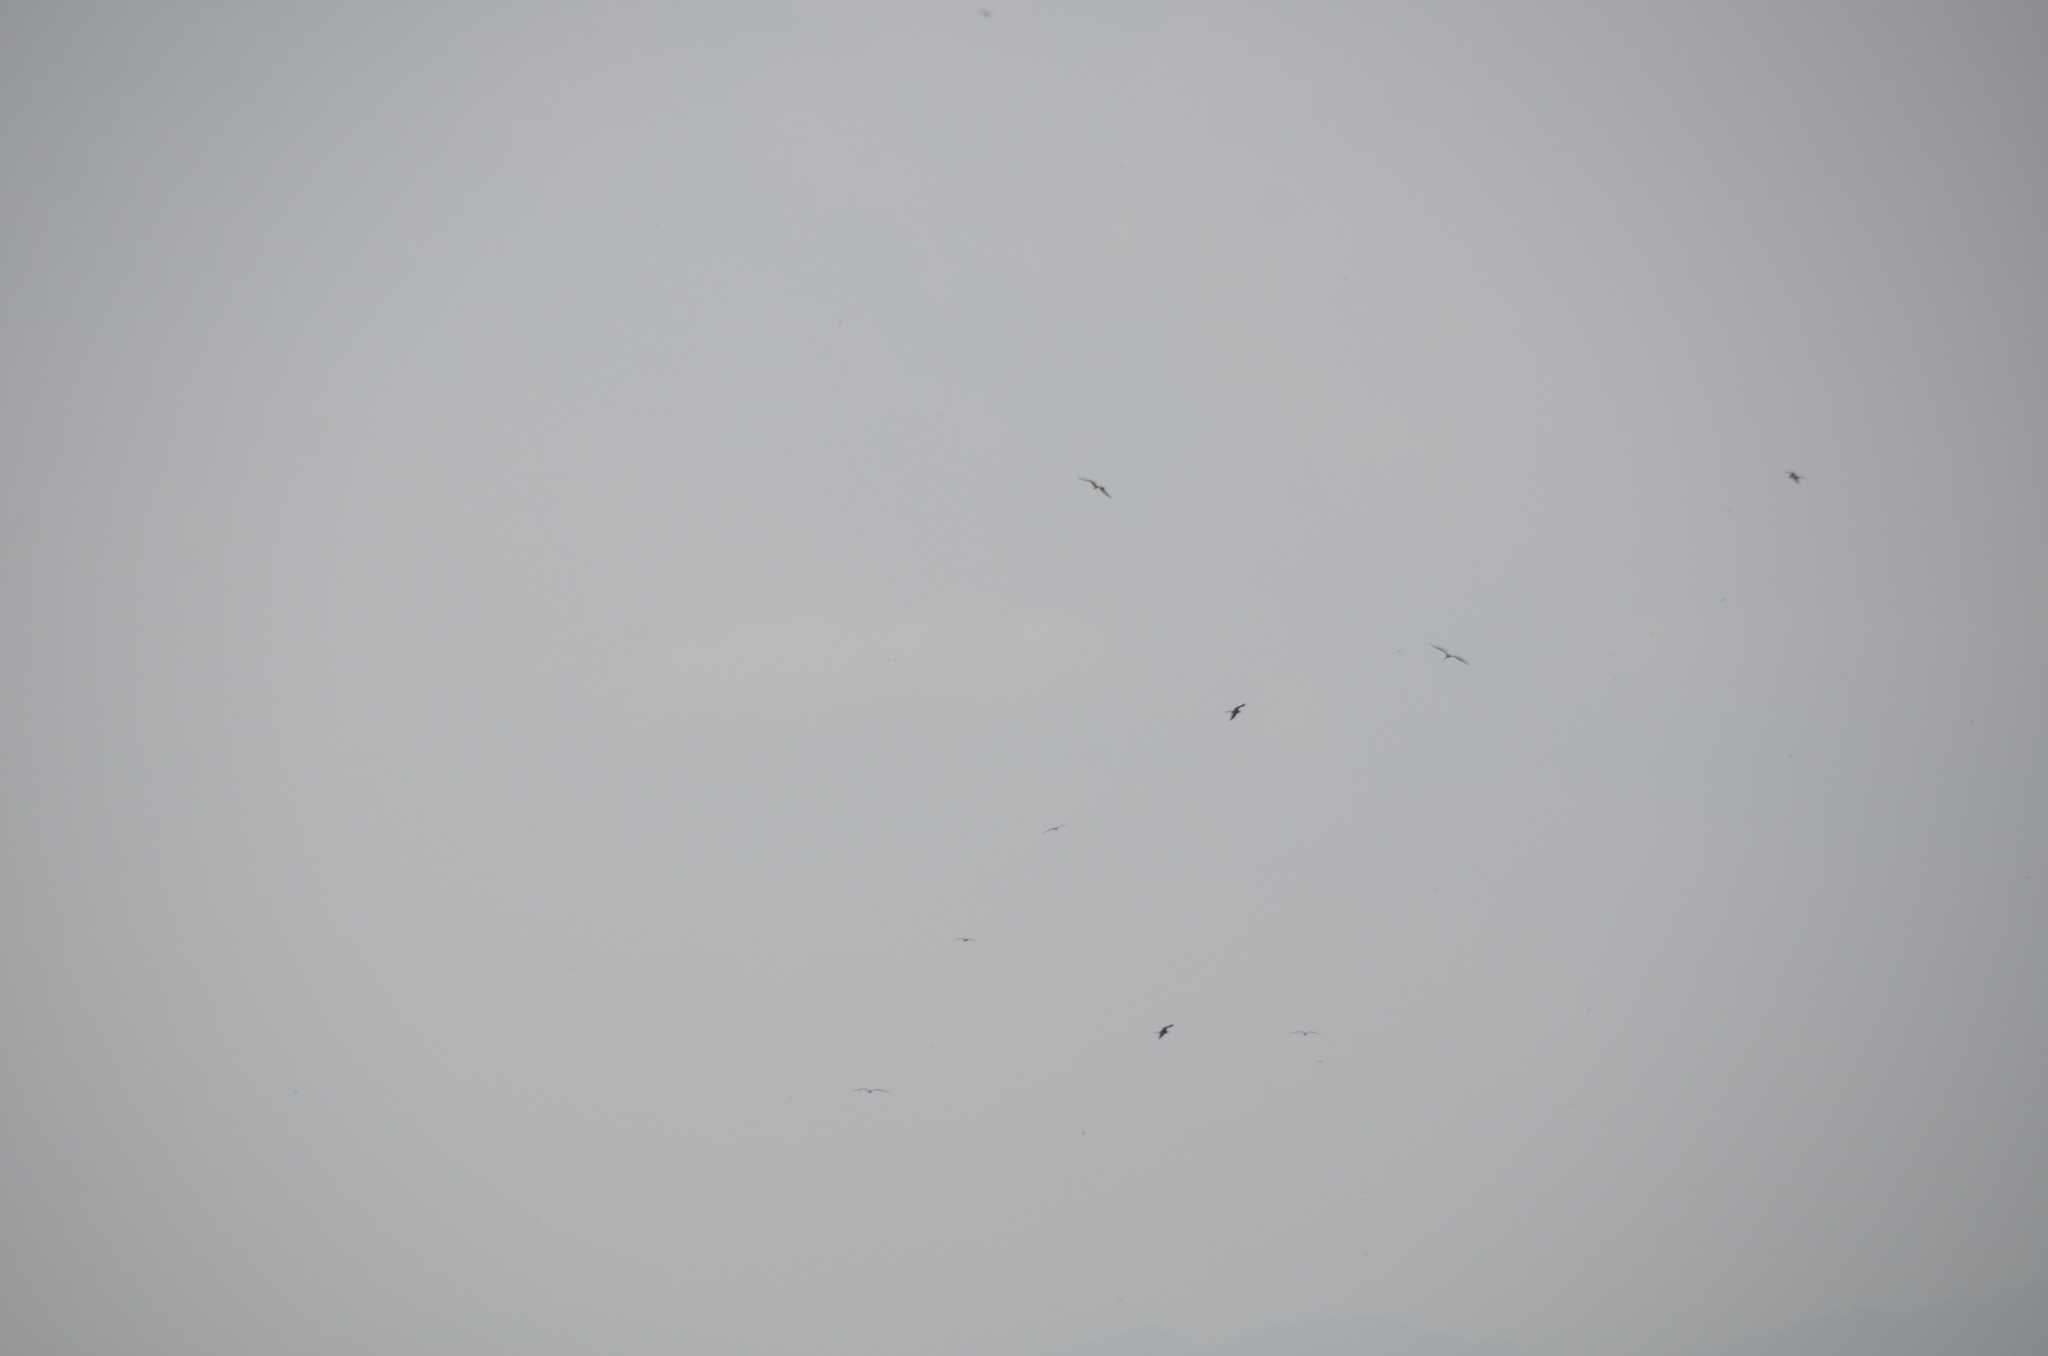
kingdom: Animalia
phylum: Chordata
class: Aves
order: Suliformes
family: Fregatidae
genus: Fregata
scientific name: Fregata magnificens
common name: Magnificent frigatebird
